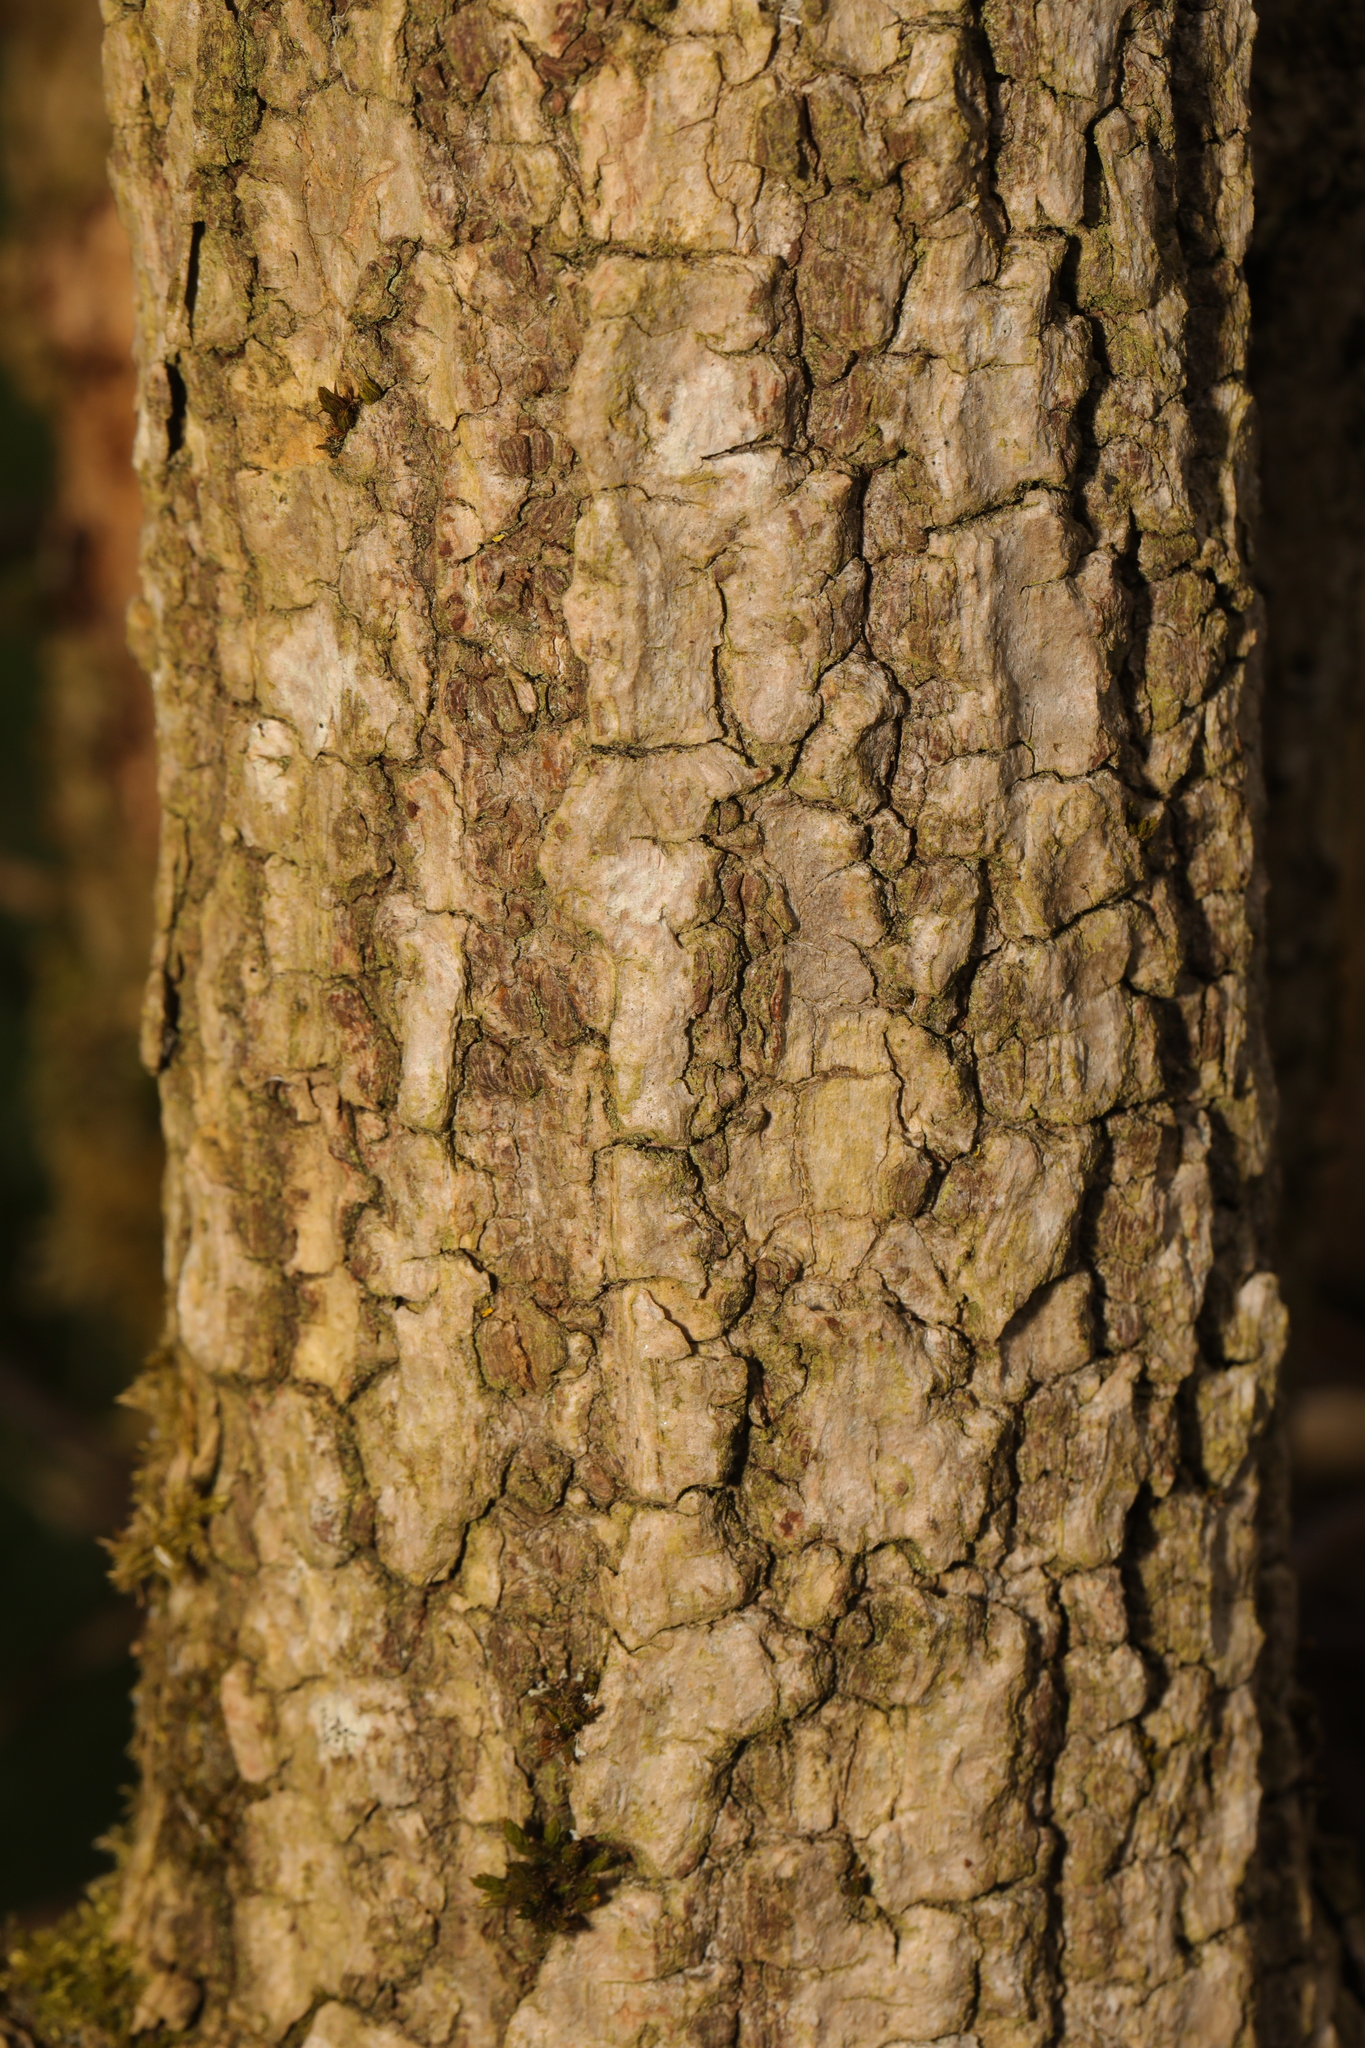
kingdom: Plantae
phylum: Tracheophyta
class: Magnoliopsida
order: Dipsacales
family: Viburnaceae
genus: Sambucus
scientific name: Sambucus nigra
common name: Elder
